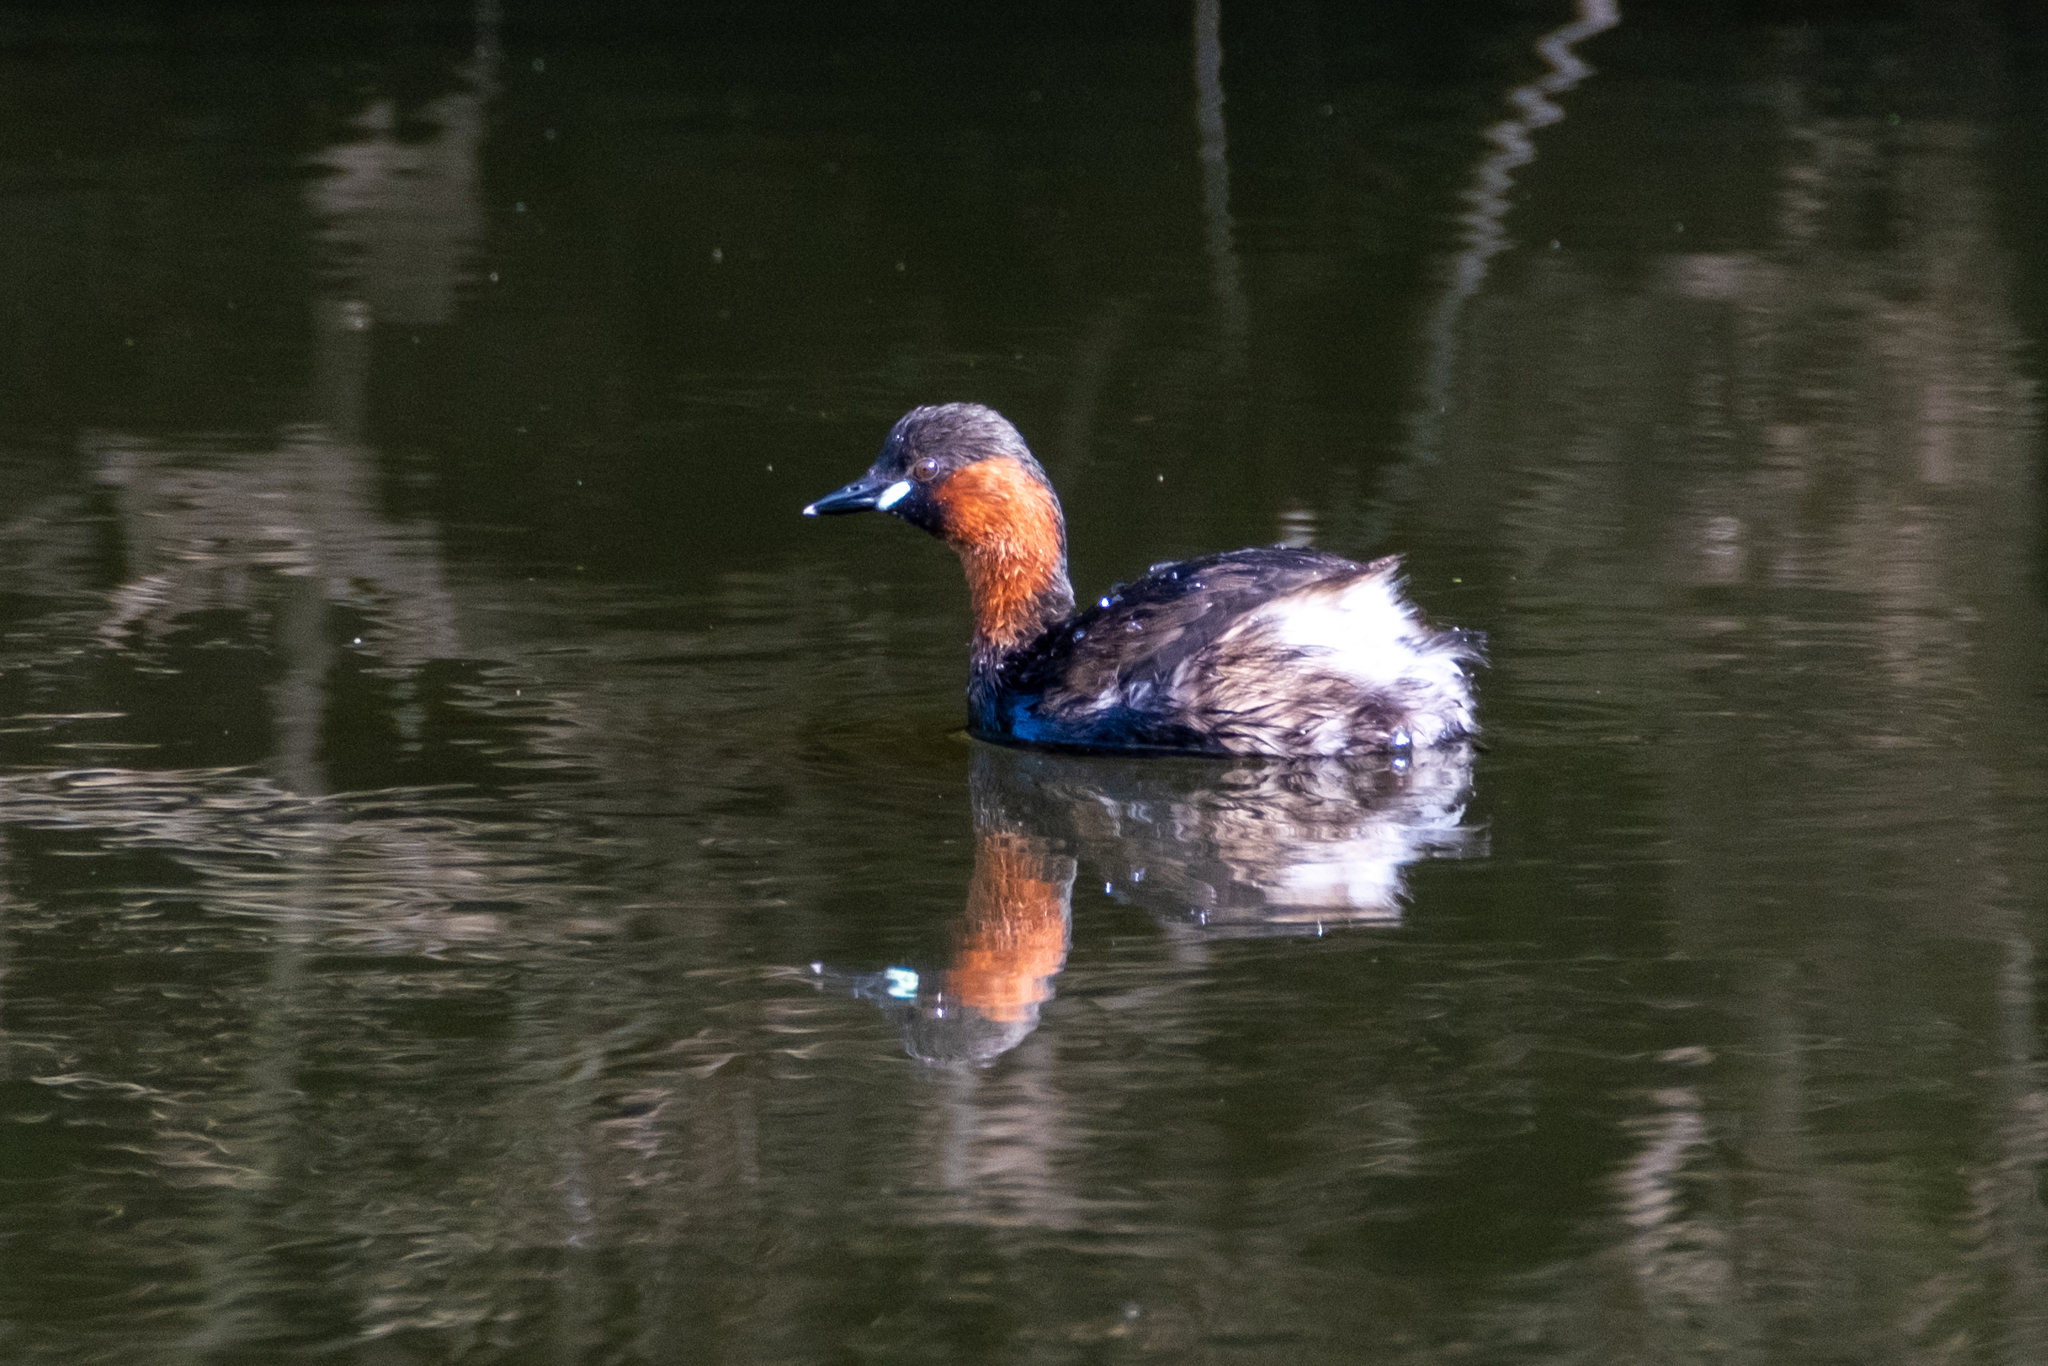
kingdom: Animalia
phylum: Chordata
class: Aves
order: Podicipediformes
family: Podicipedidae
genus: Tachybaptus
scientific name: Tachybaptus ruficollis
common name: Little grebe
